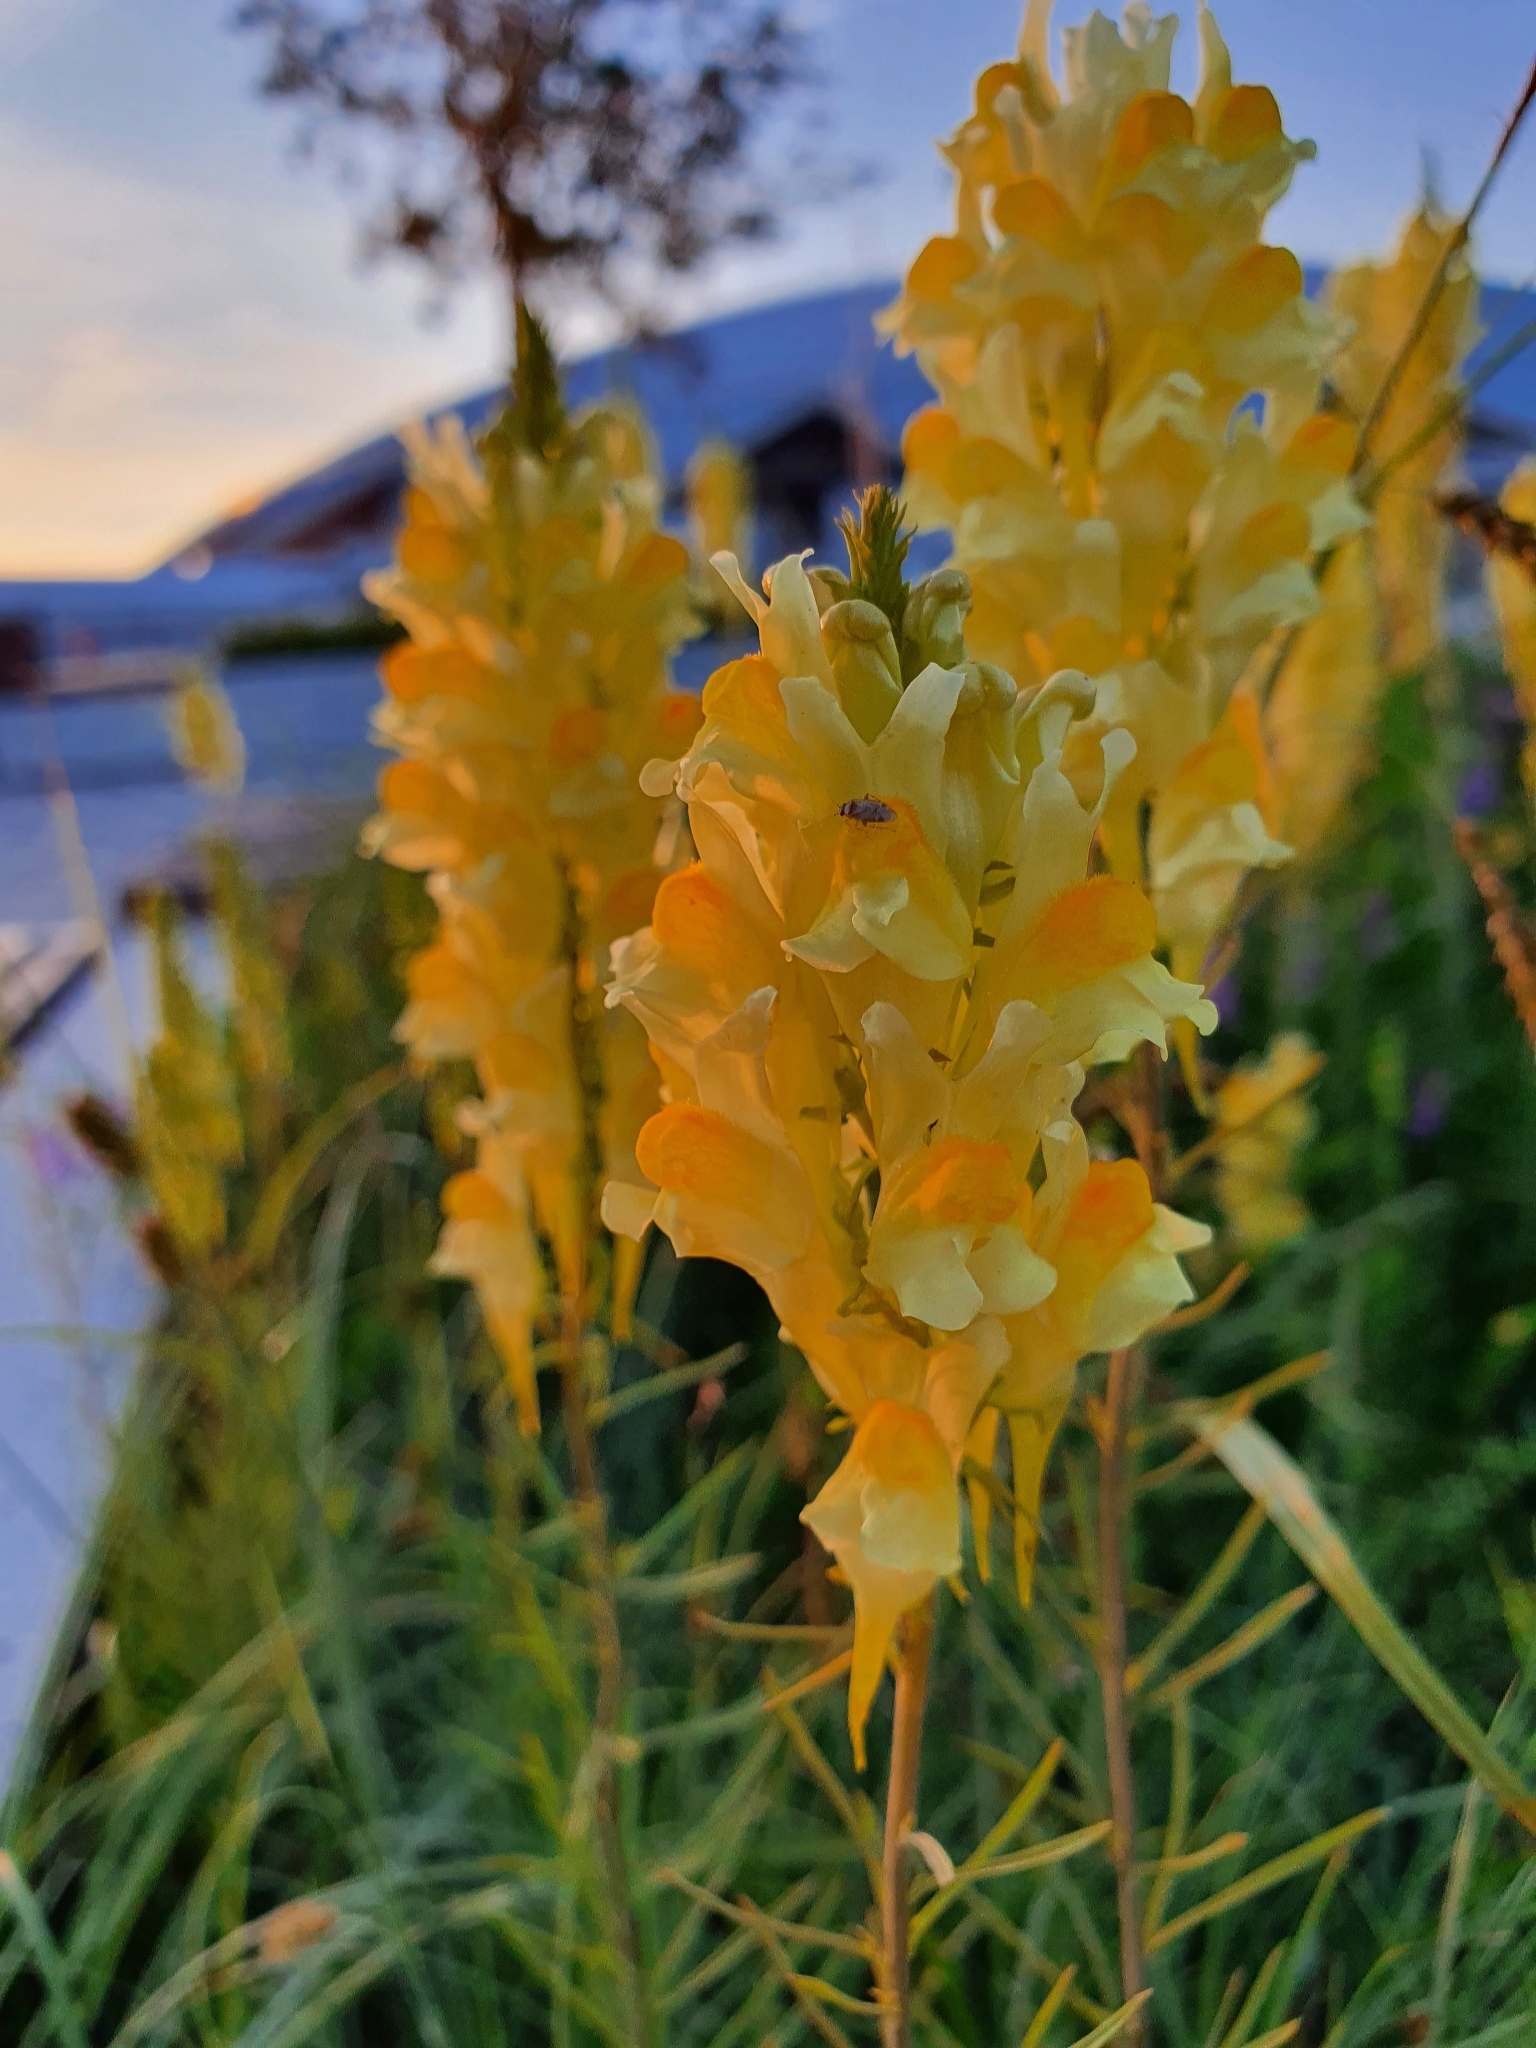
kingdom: Plantae
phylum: Tracheophyta
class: Magnoliopsida
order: Lamiales
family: Plantaginaceae
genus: Linaria
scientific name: Linaria vulgaris
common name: Butter and eggs
